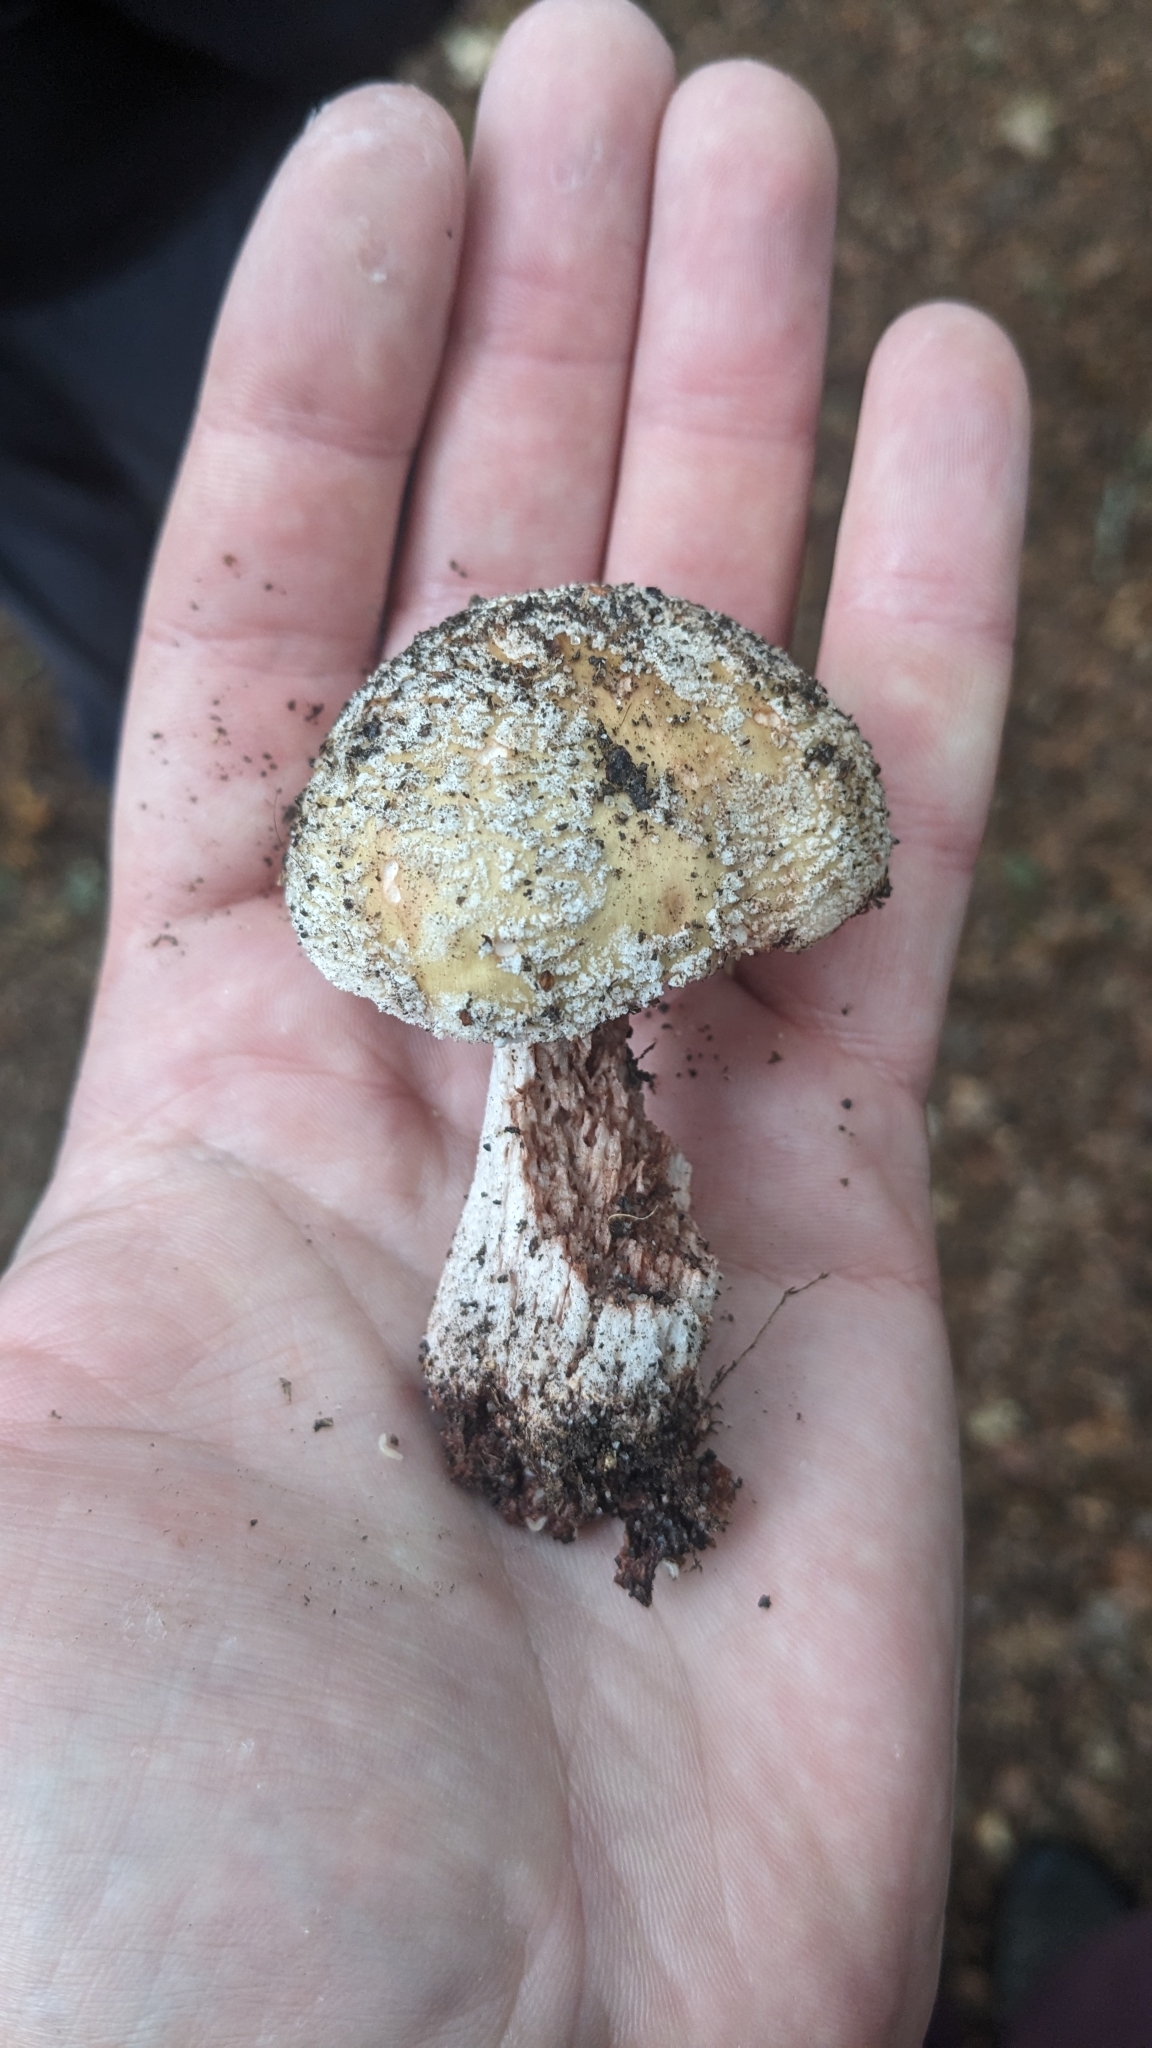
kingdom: Fungi
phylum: Basidiomycota
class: Agaricomycetes
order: Agaricales
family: Amanitaceae
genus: Amanita
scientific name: Amanita rubescens
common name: Blusher
